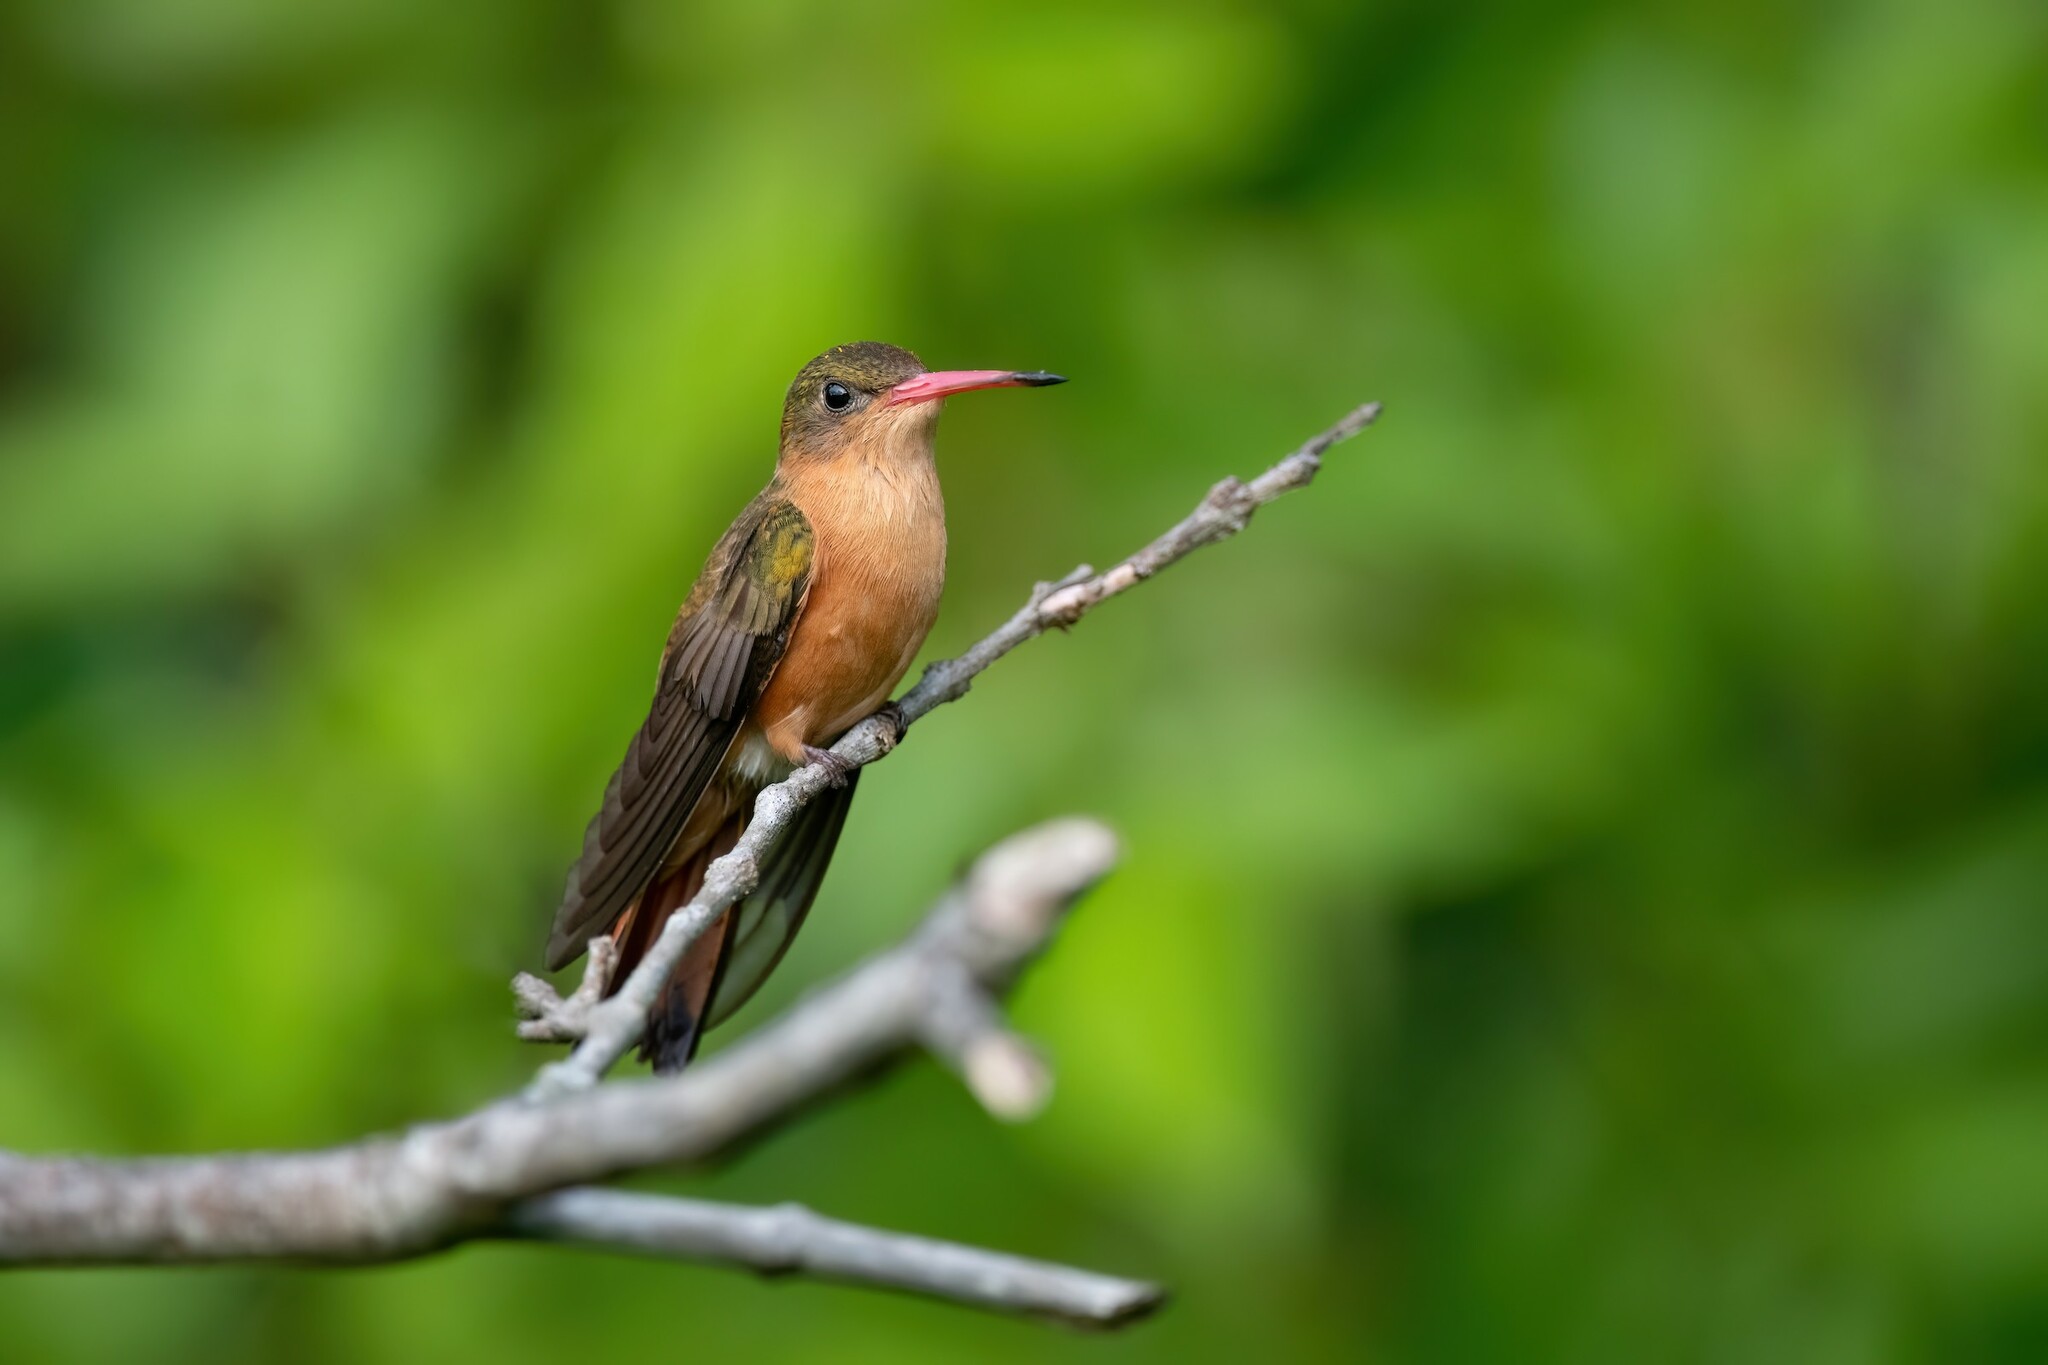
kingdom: Animalia
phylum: Chordata
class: Aves
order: Apodiformes
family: Trochilidae
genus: Amazilia
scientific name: Amazilia rutila
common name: Cinnamon hummingbird
